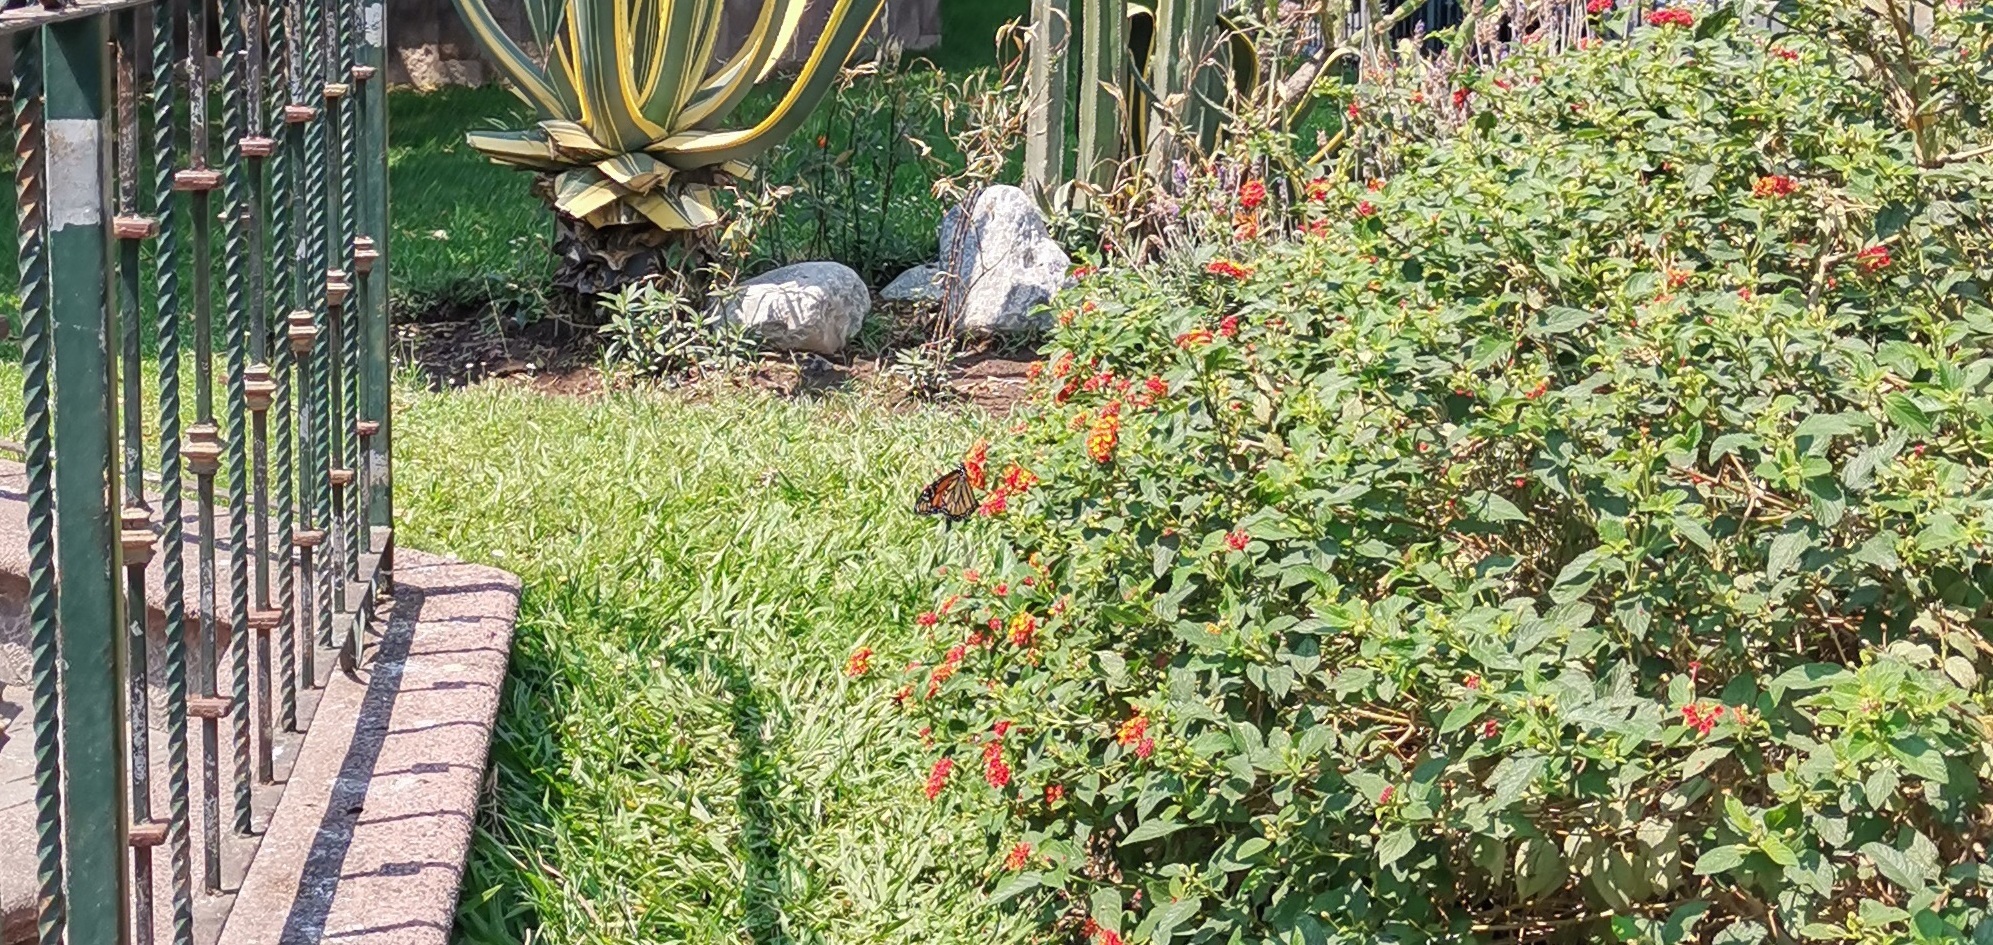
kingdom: Animalia
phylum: Arthropoda
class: Insecta
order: Lepidoptera
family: Nymphalidae
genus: Danaus
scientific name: Danaus plexippus
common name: Monarch
